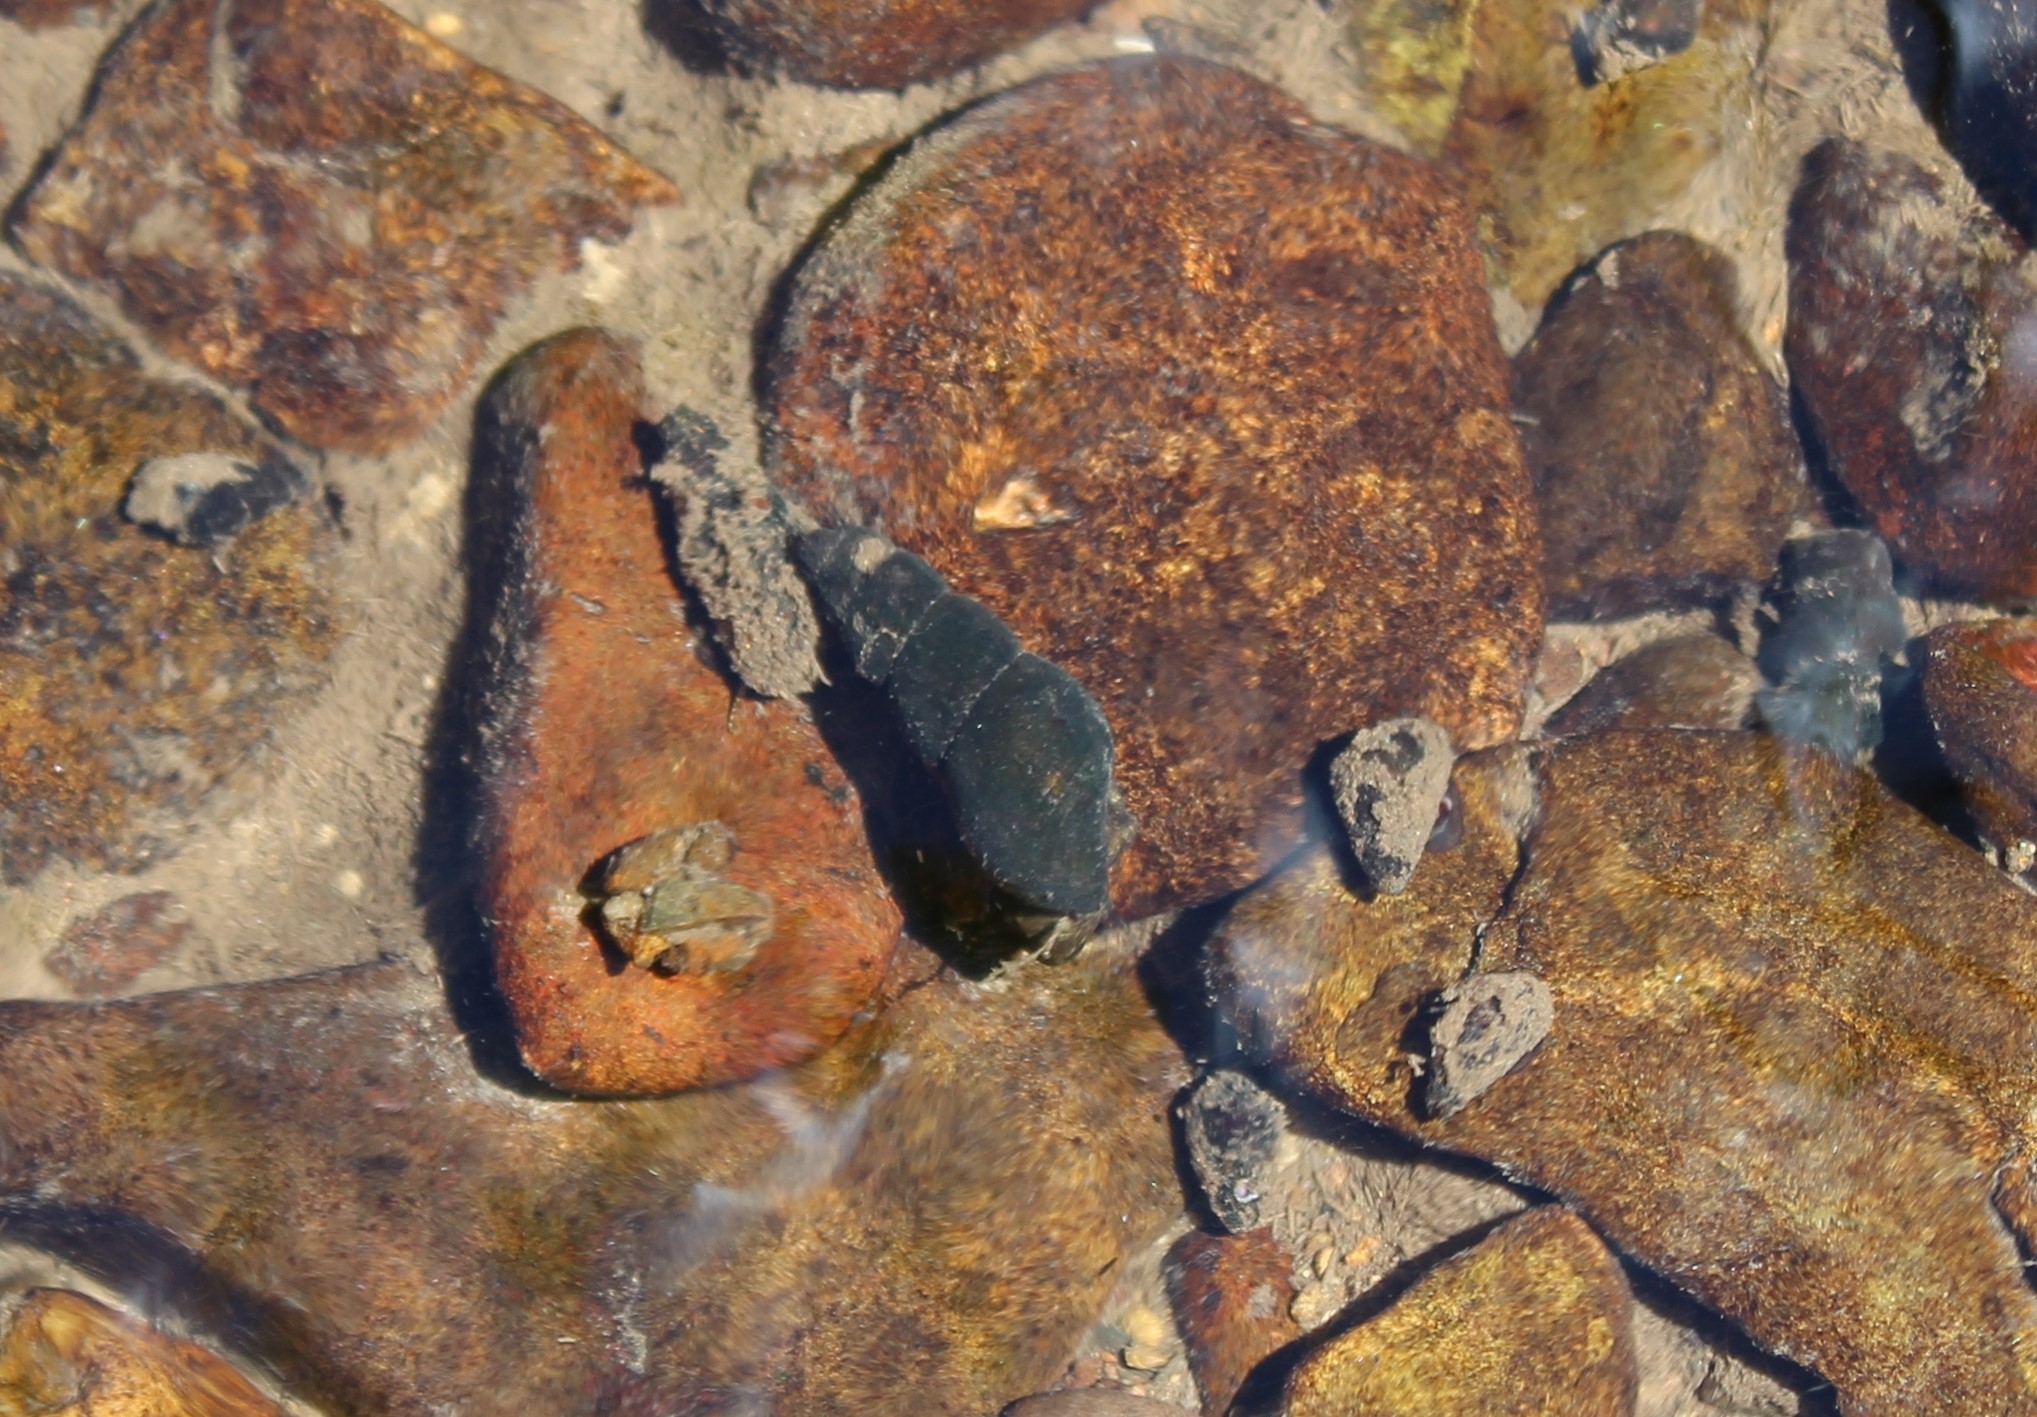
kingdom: Animalia
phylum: Mollusca
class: Gastropoda
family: Semisulcospiridae
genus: Juga
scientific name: Juga plicifera
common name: Pleated juga
